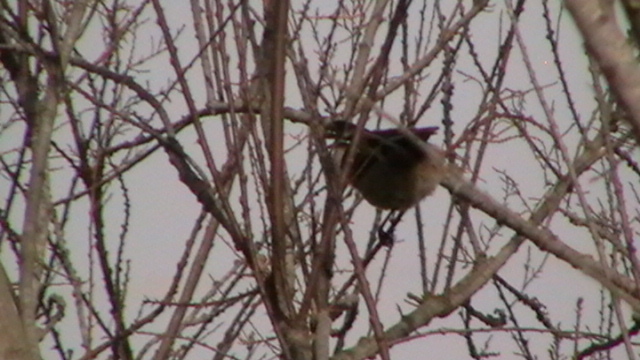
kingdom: Animalia
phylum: Chordata
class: Aves
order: Passeriformes
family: Aegithalidae
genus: Aegithalos
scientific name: Aegithalos caudatus
